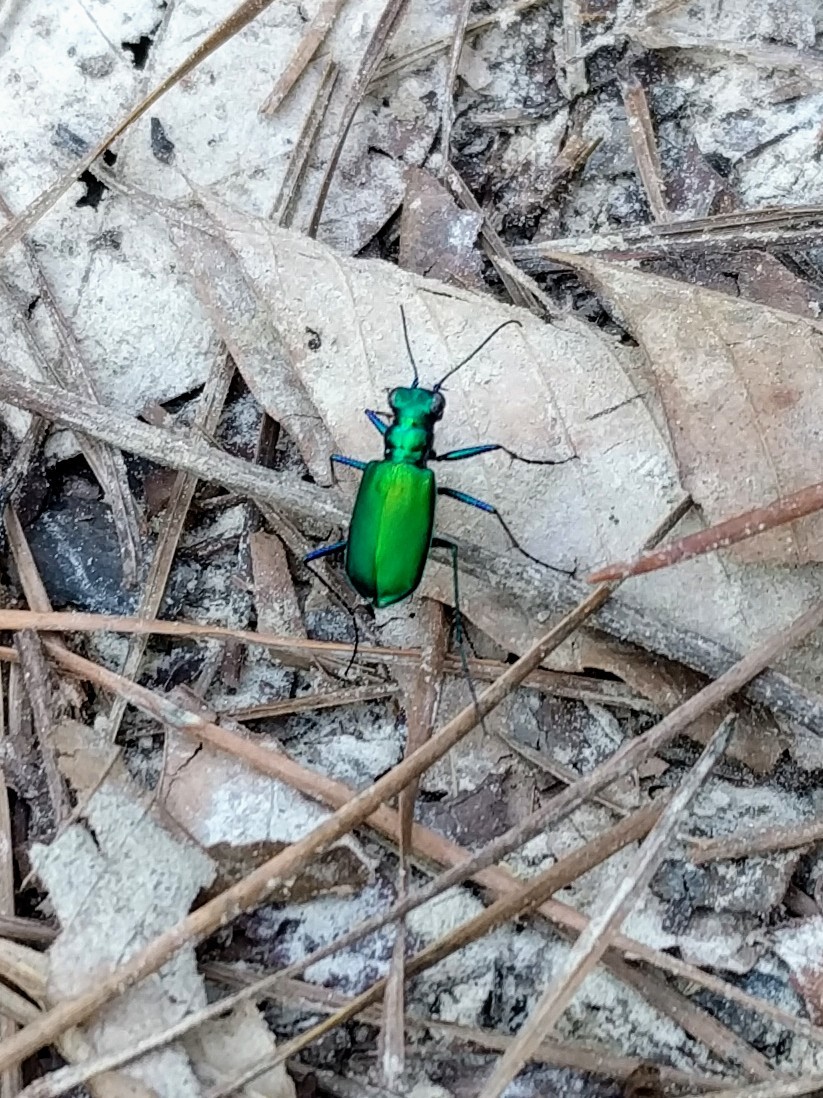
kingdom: Animalia
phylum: Arthropoda
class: Insecta
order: Coleoptera
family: Carabidae
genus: Cicindela
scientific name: Cicindela sexguttata
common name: Six-spotted tiger beetle
